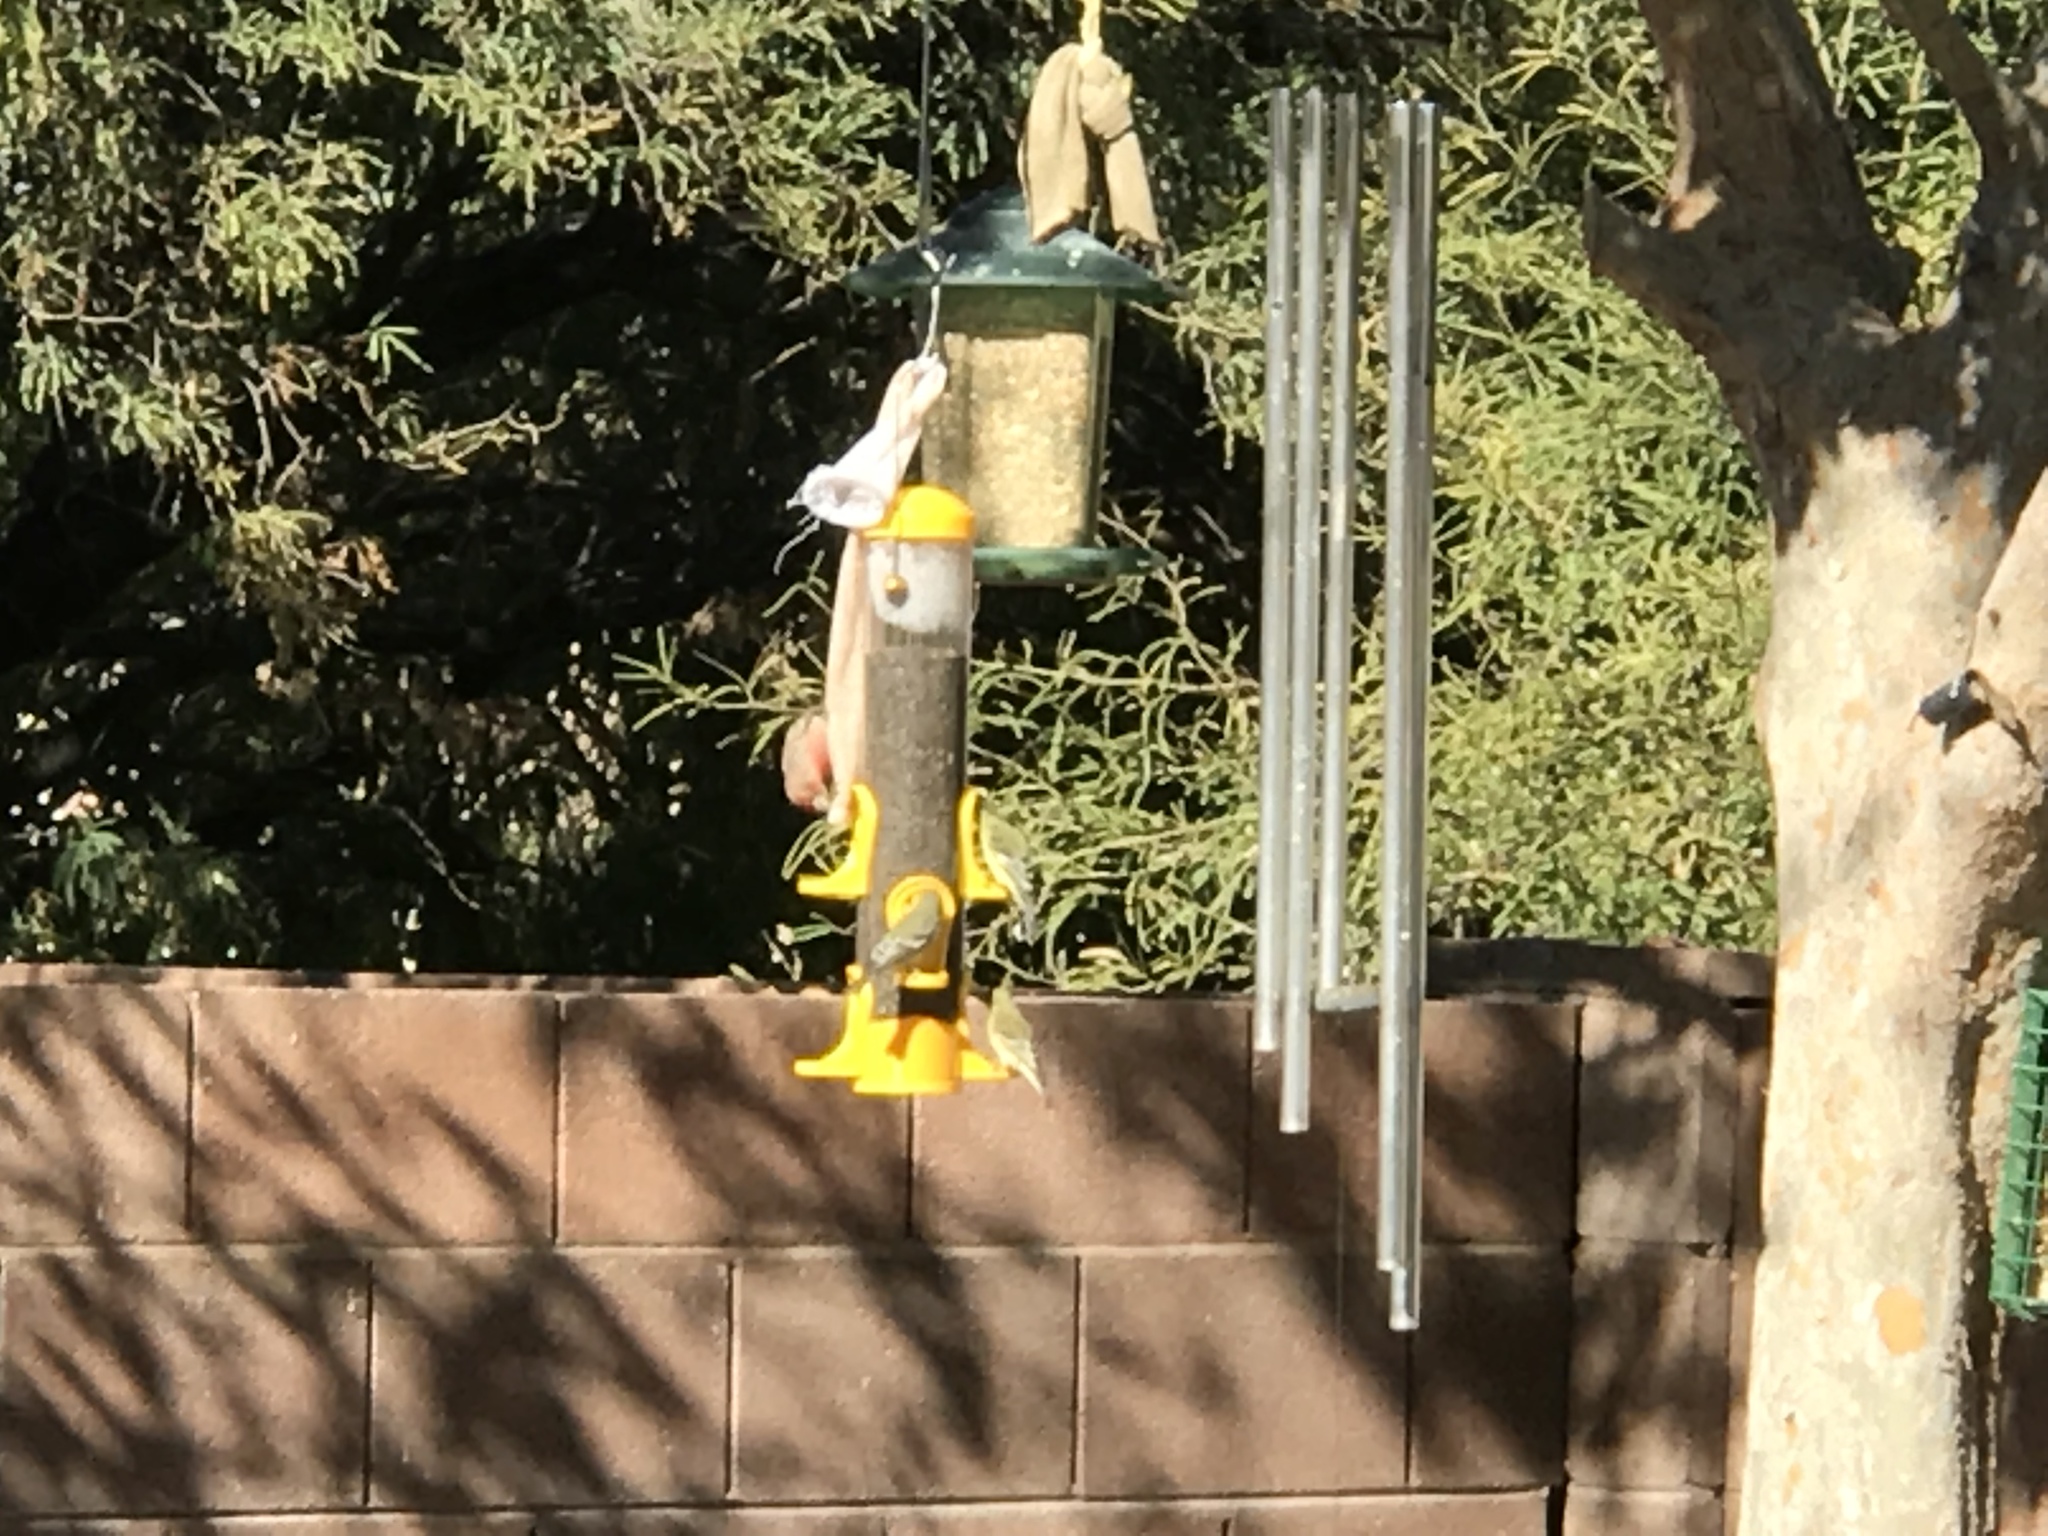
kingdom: Animalia
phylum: Chordata
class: Aves
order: Passeriformes
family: Fringillidae
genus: Spinus
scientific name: Spinus psaltria
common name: Lesser goldfinch
